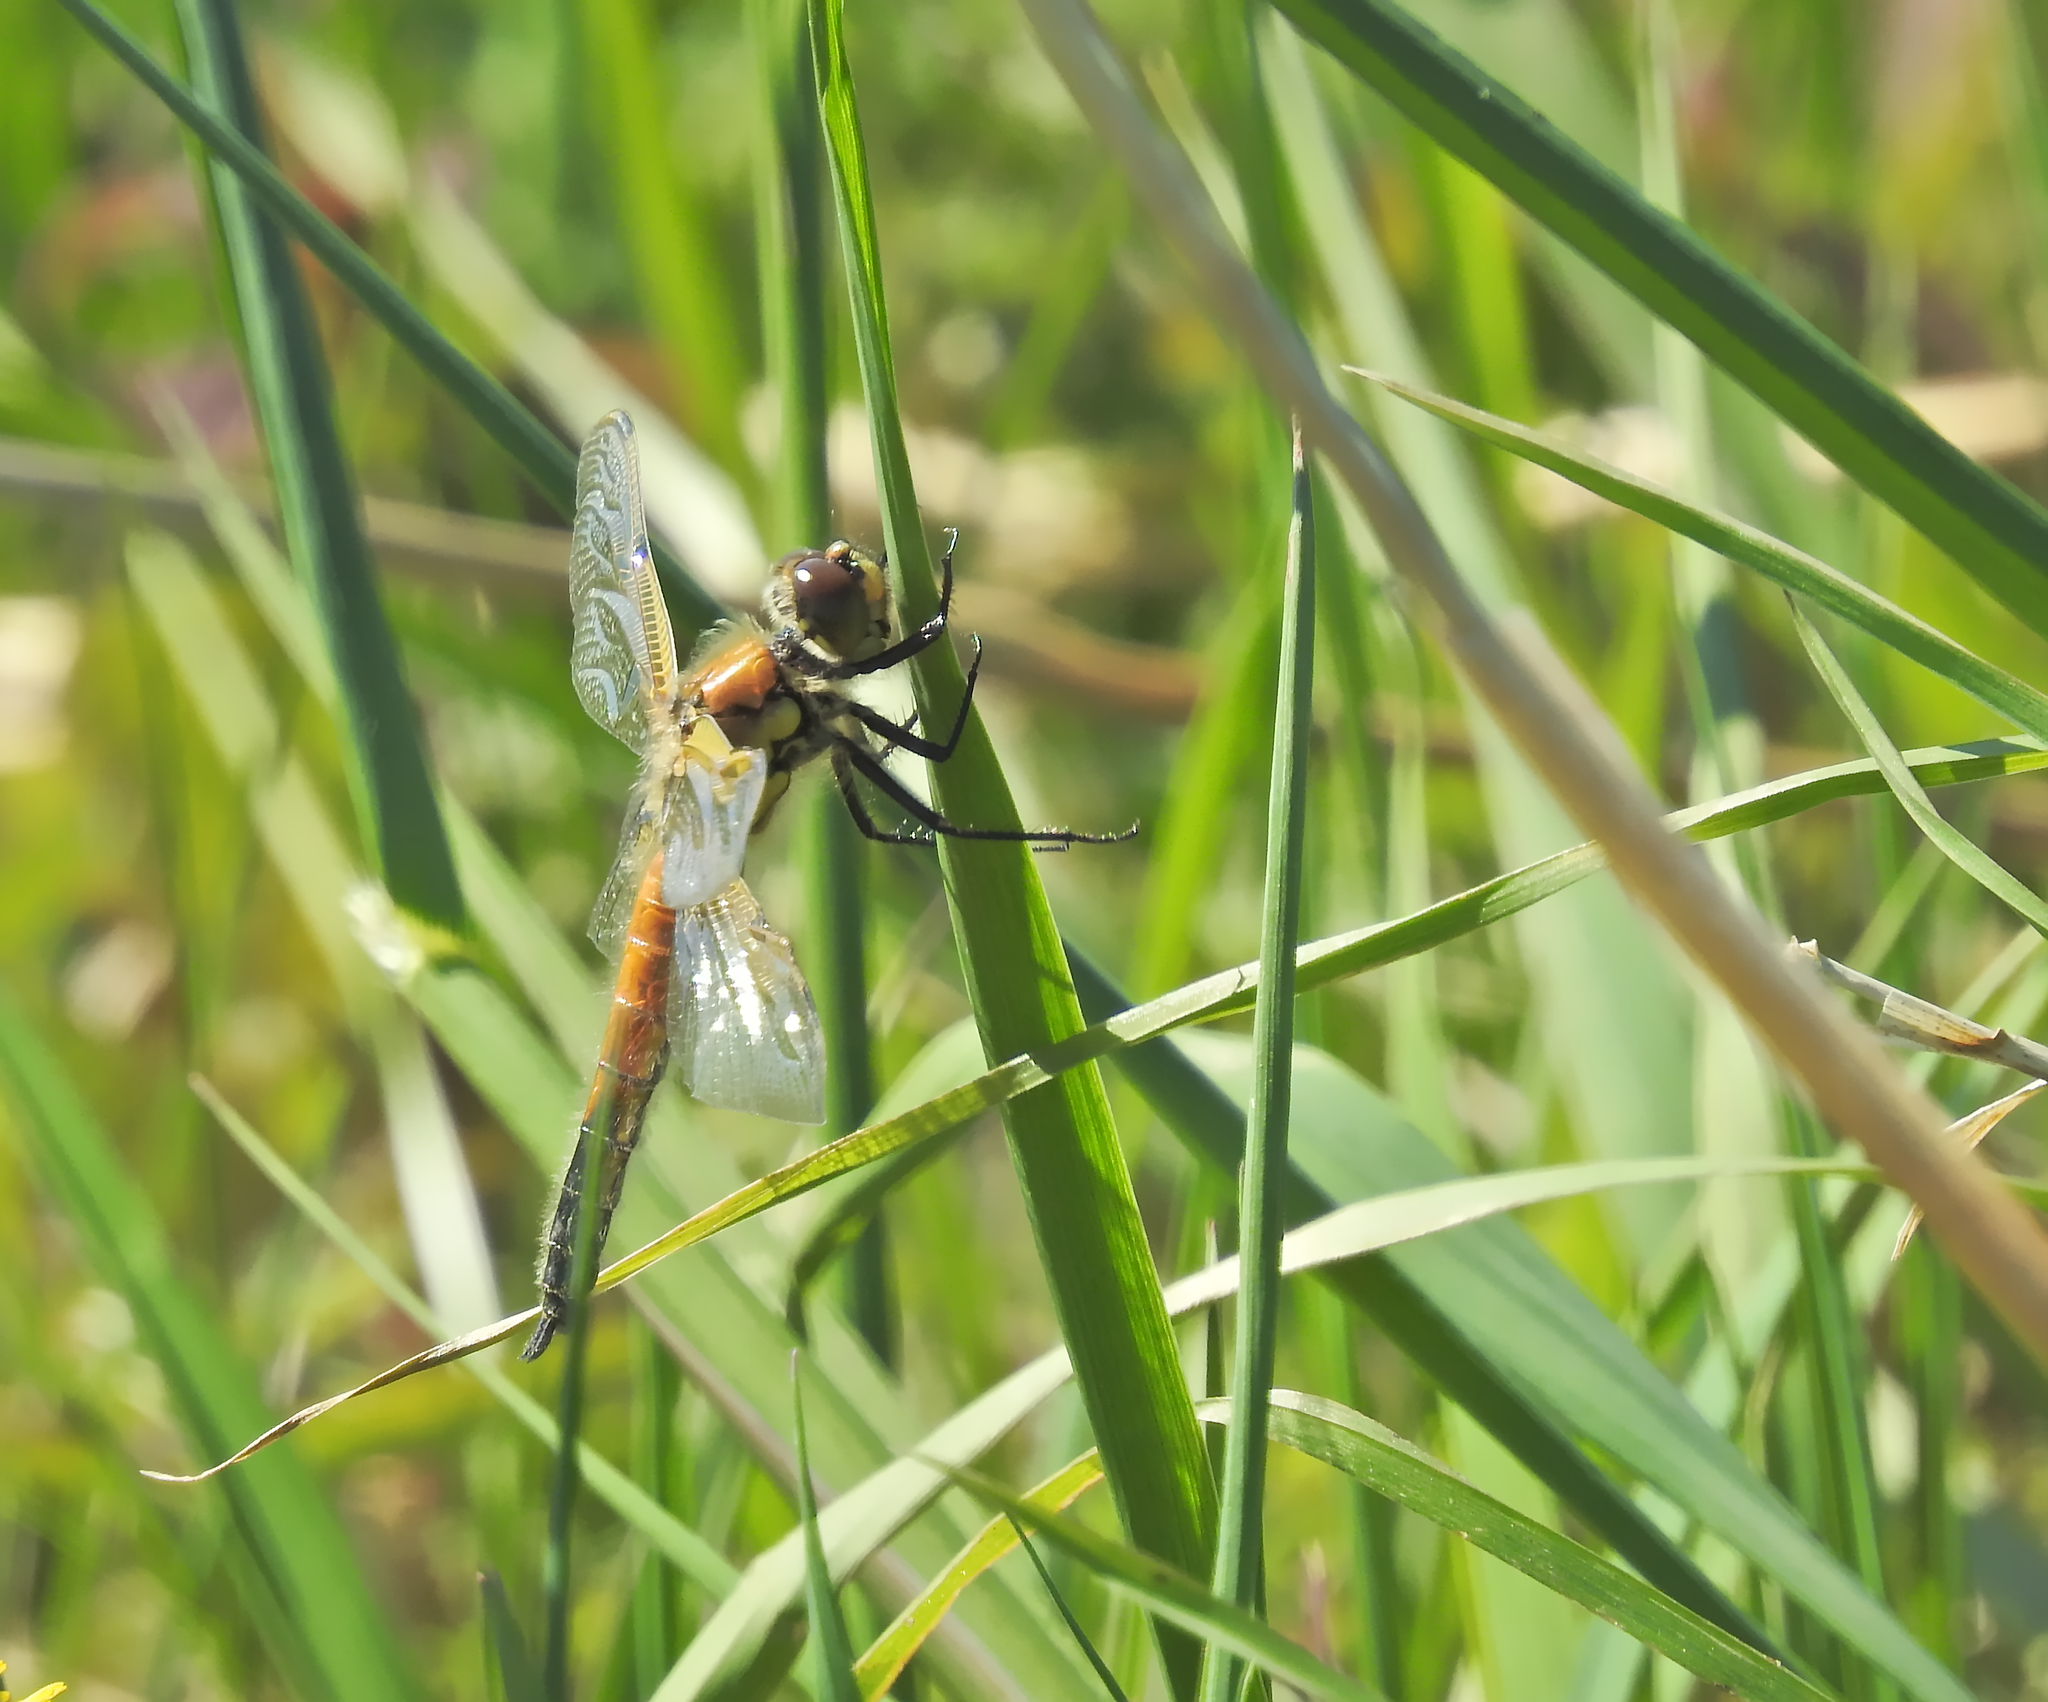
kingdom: Animalia
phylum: Arthropoda
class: Insecta
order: Odonata
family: Libellulidae
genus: Libellula
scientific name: Libellula quadrimaculata
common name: Four-spotted chaser
